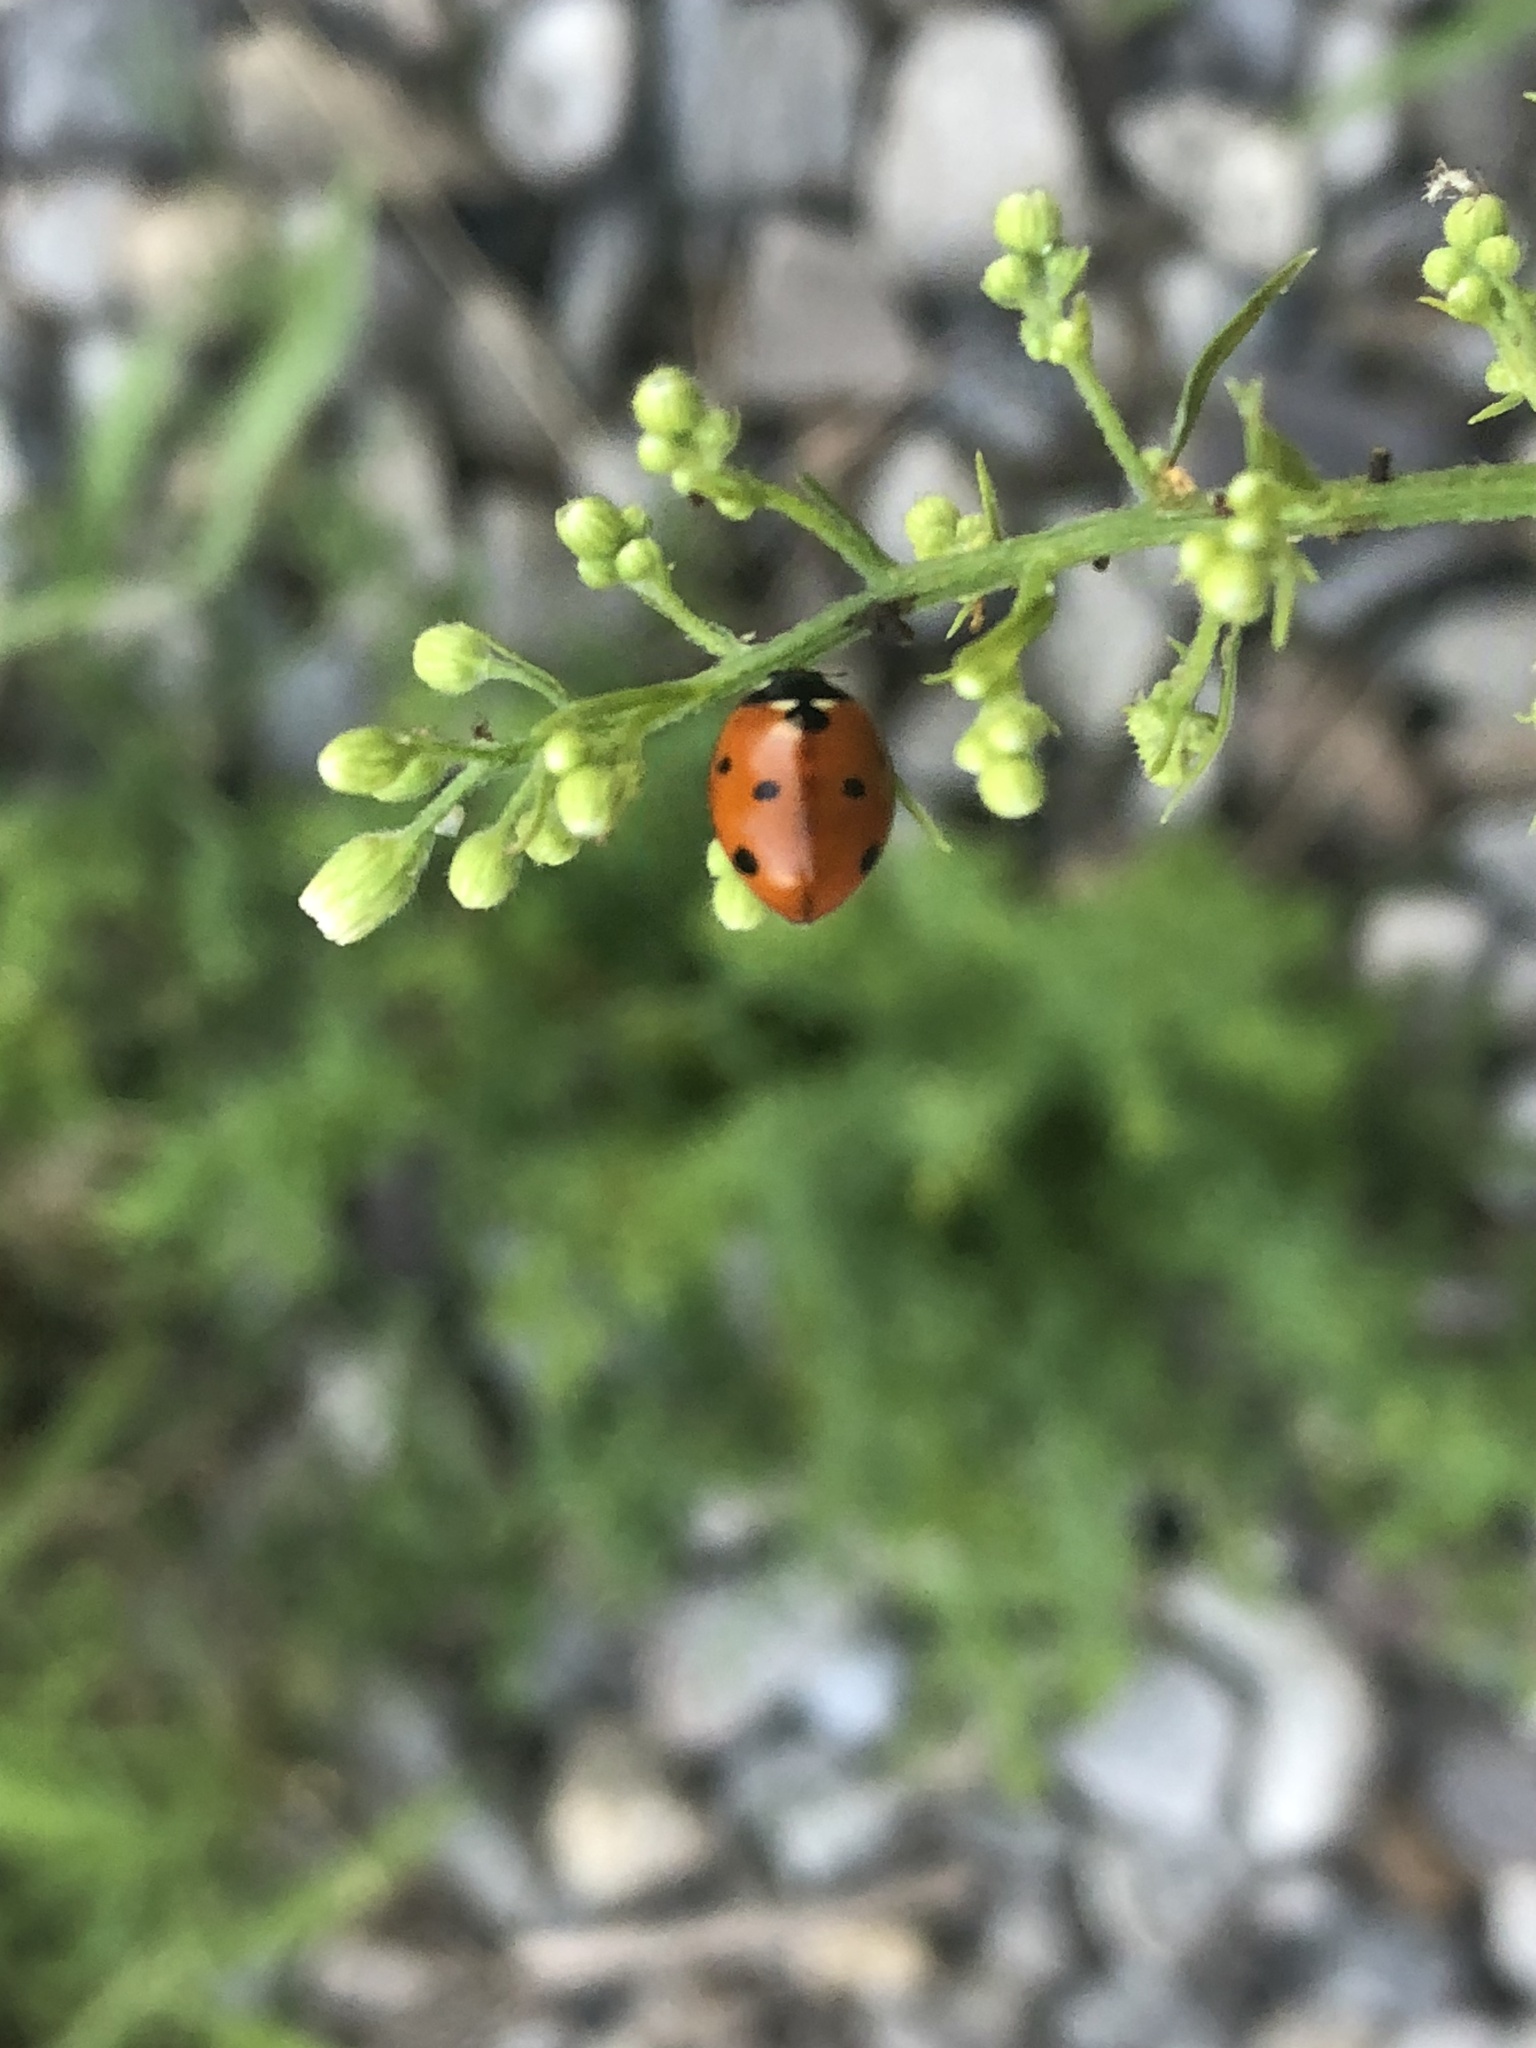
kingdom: Animalia
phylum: Arthropoda
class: Insecta
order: Coleoptera
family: Coccinellidae
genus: Coccinella
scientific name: Coccinella septempunctata
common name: Sevenspotted lady beetle
